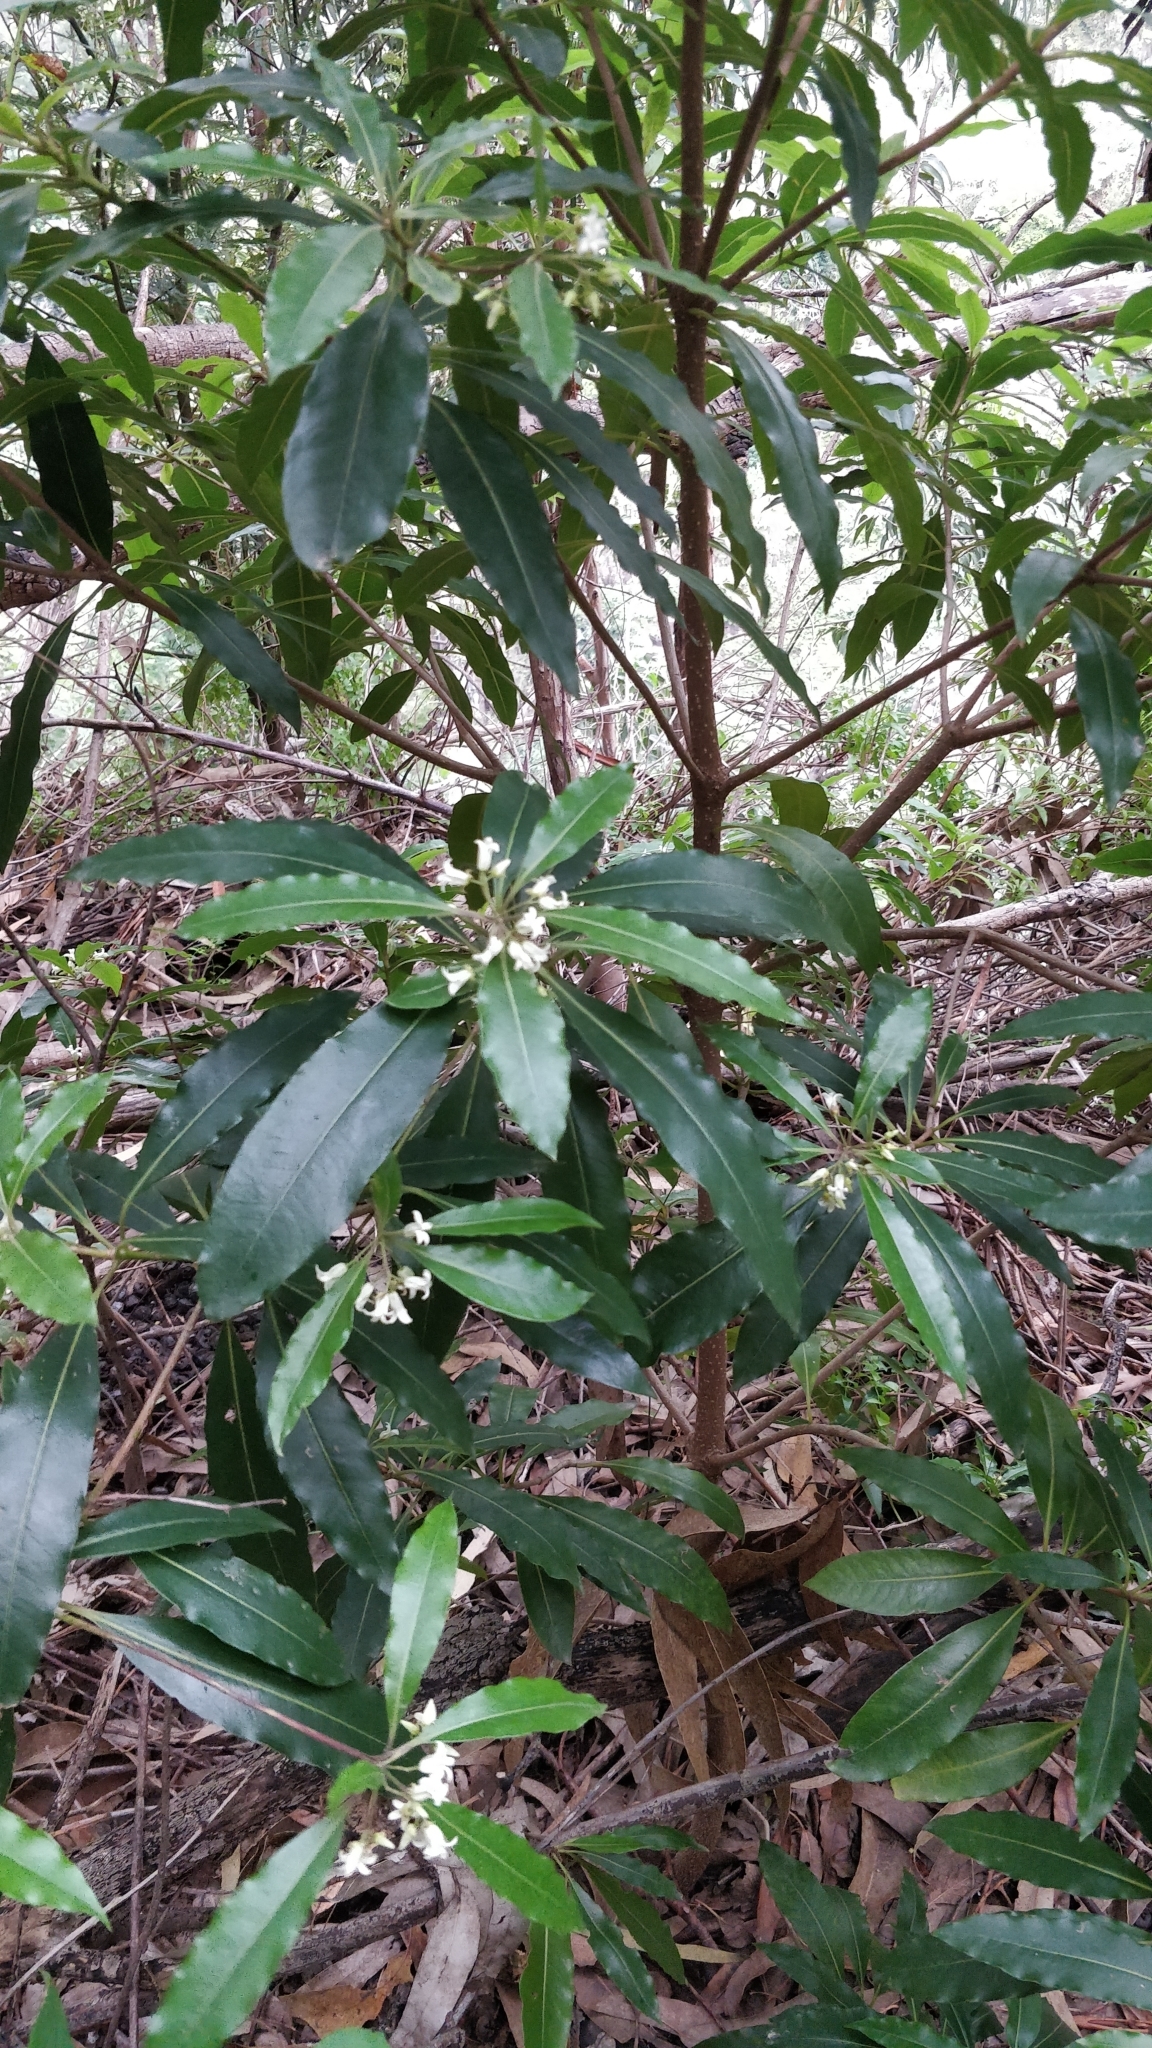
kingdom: Plantae
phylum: Tracheophyta
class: Magnoliopsida
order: Apiales
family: Pittosporaceae
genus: Pittosporum
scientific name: Pittosporum undulatum
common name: Australian cheesewood
